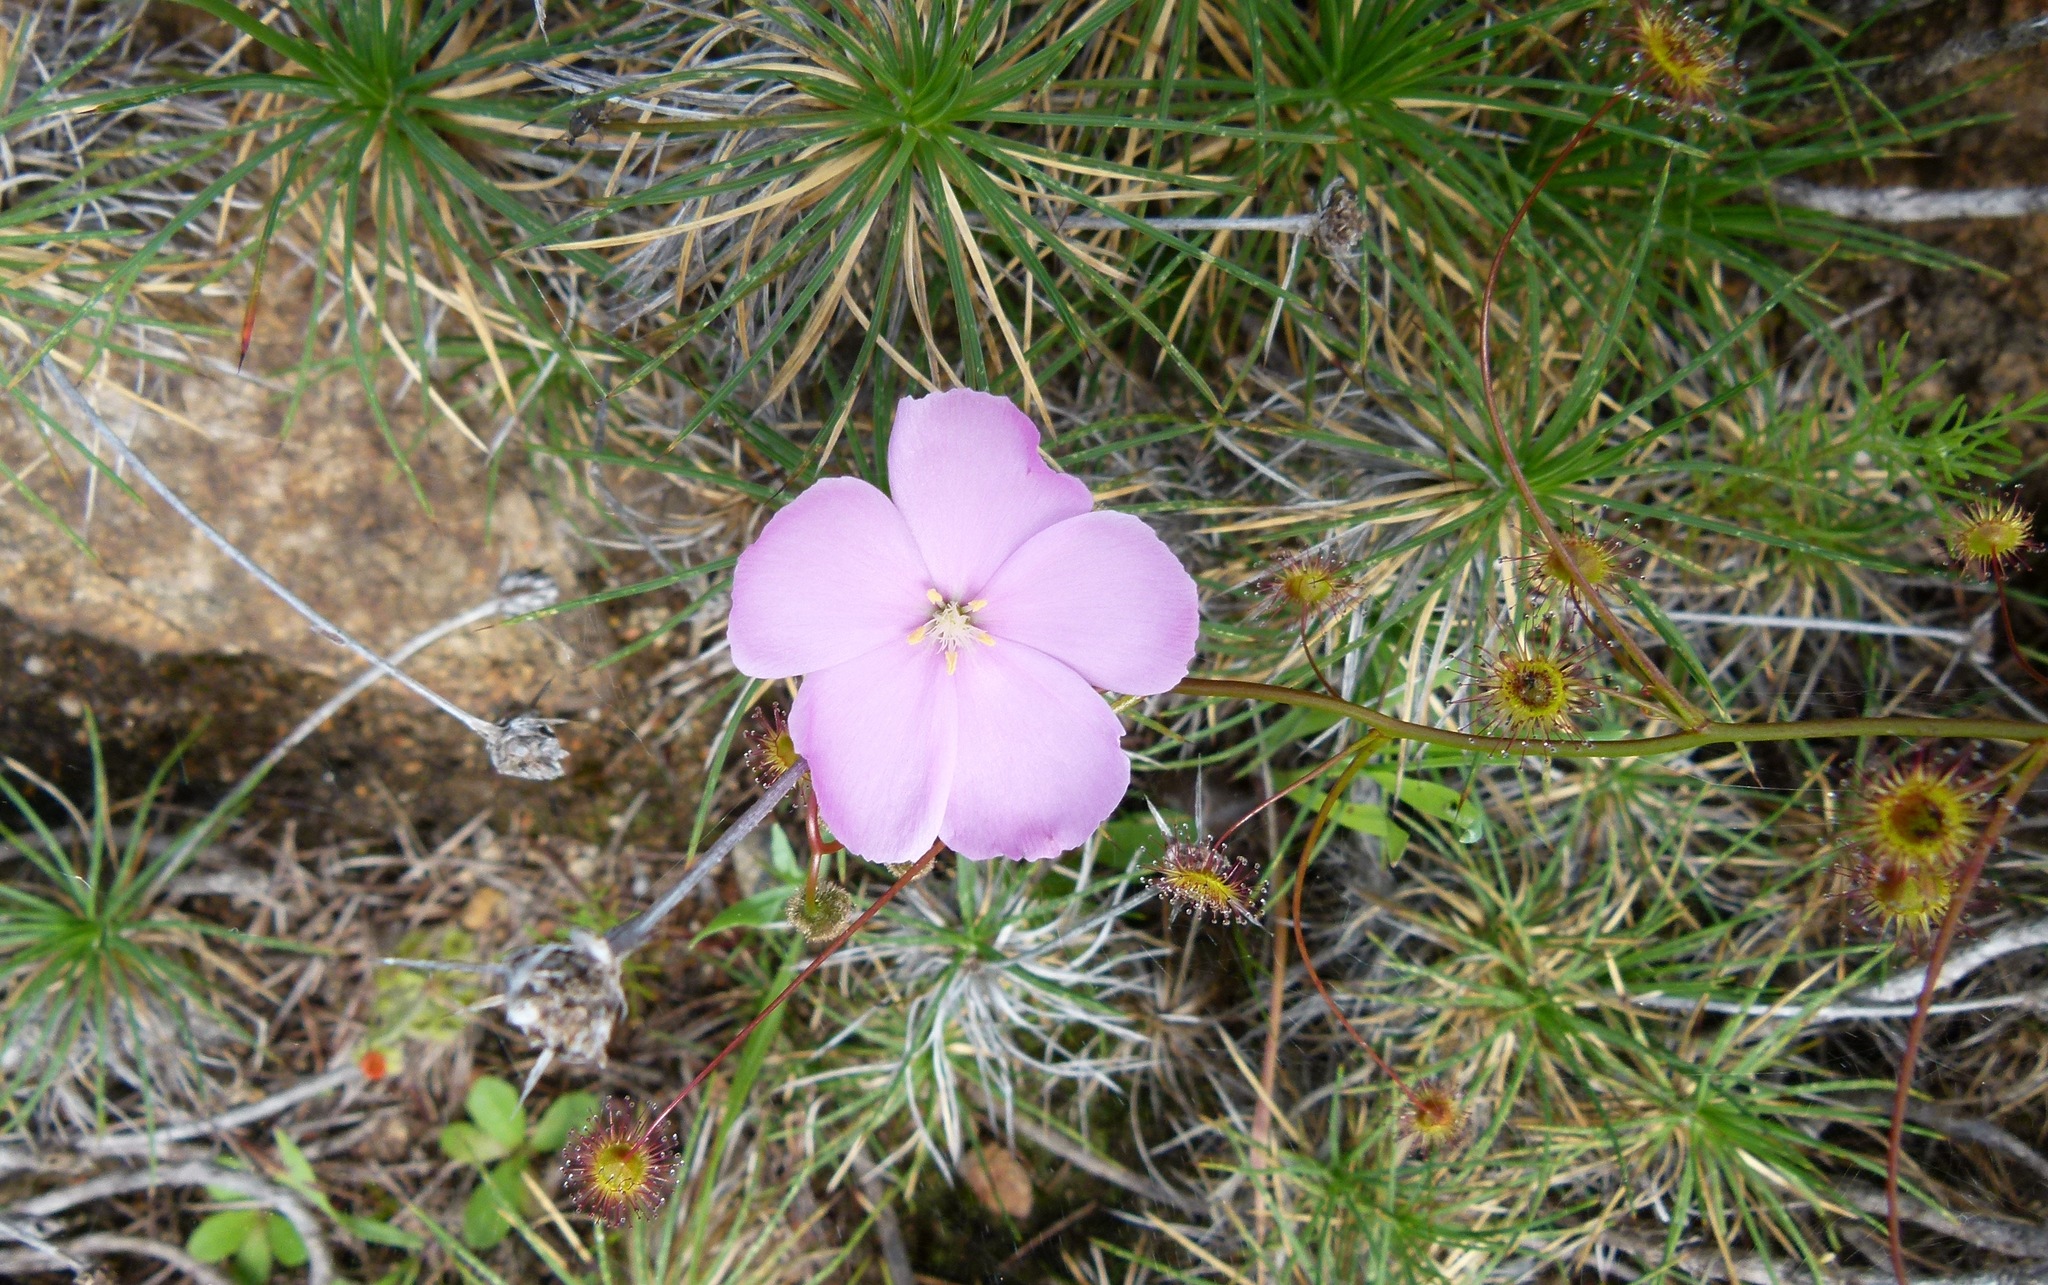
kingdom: Plantae
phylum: Tracheophyta
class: Magnoliopsida
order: Caryophyllales
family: Droseraceae
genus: Drosera
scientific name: Drosera
